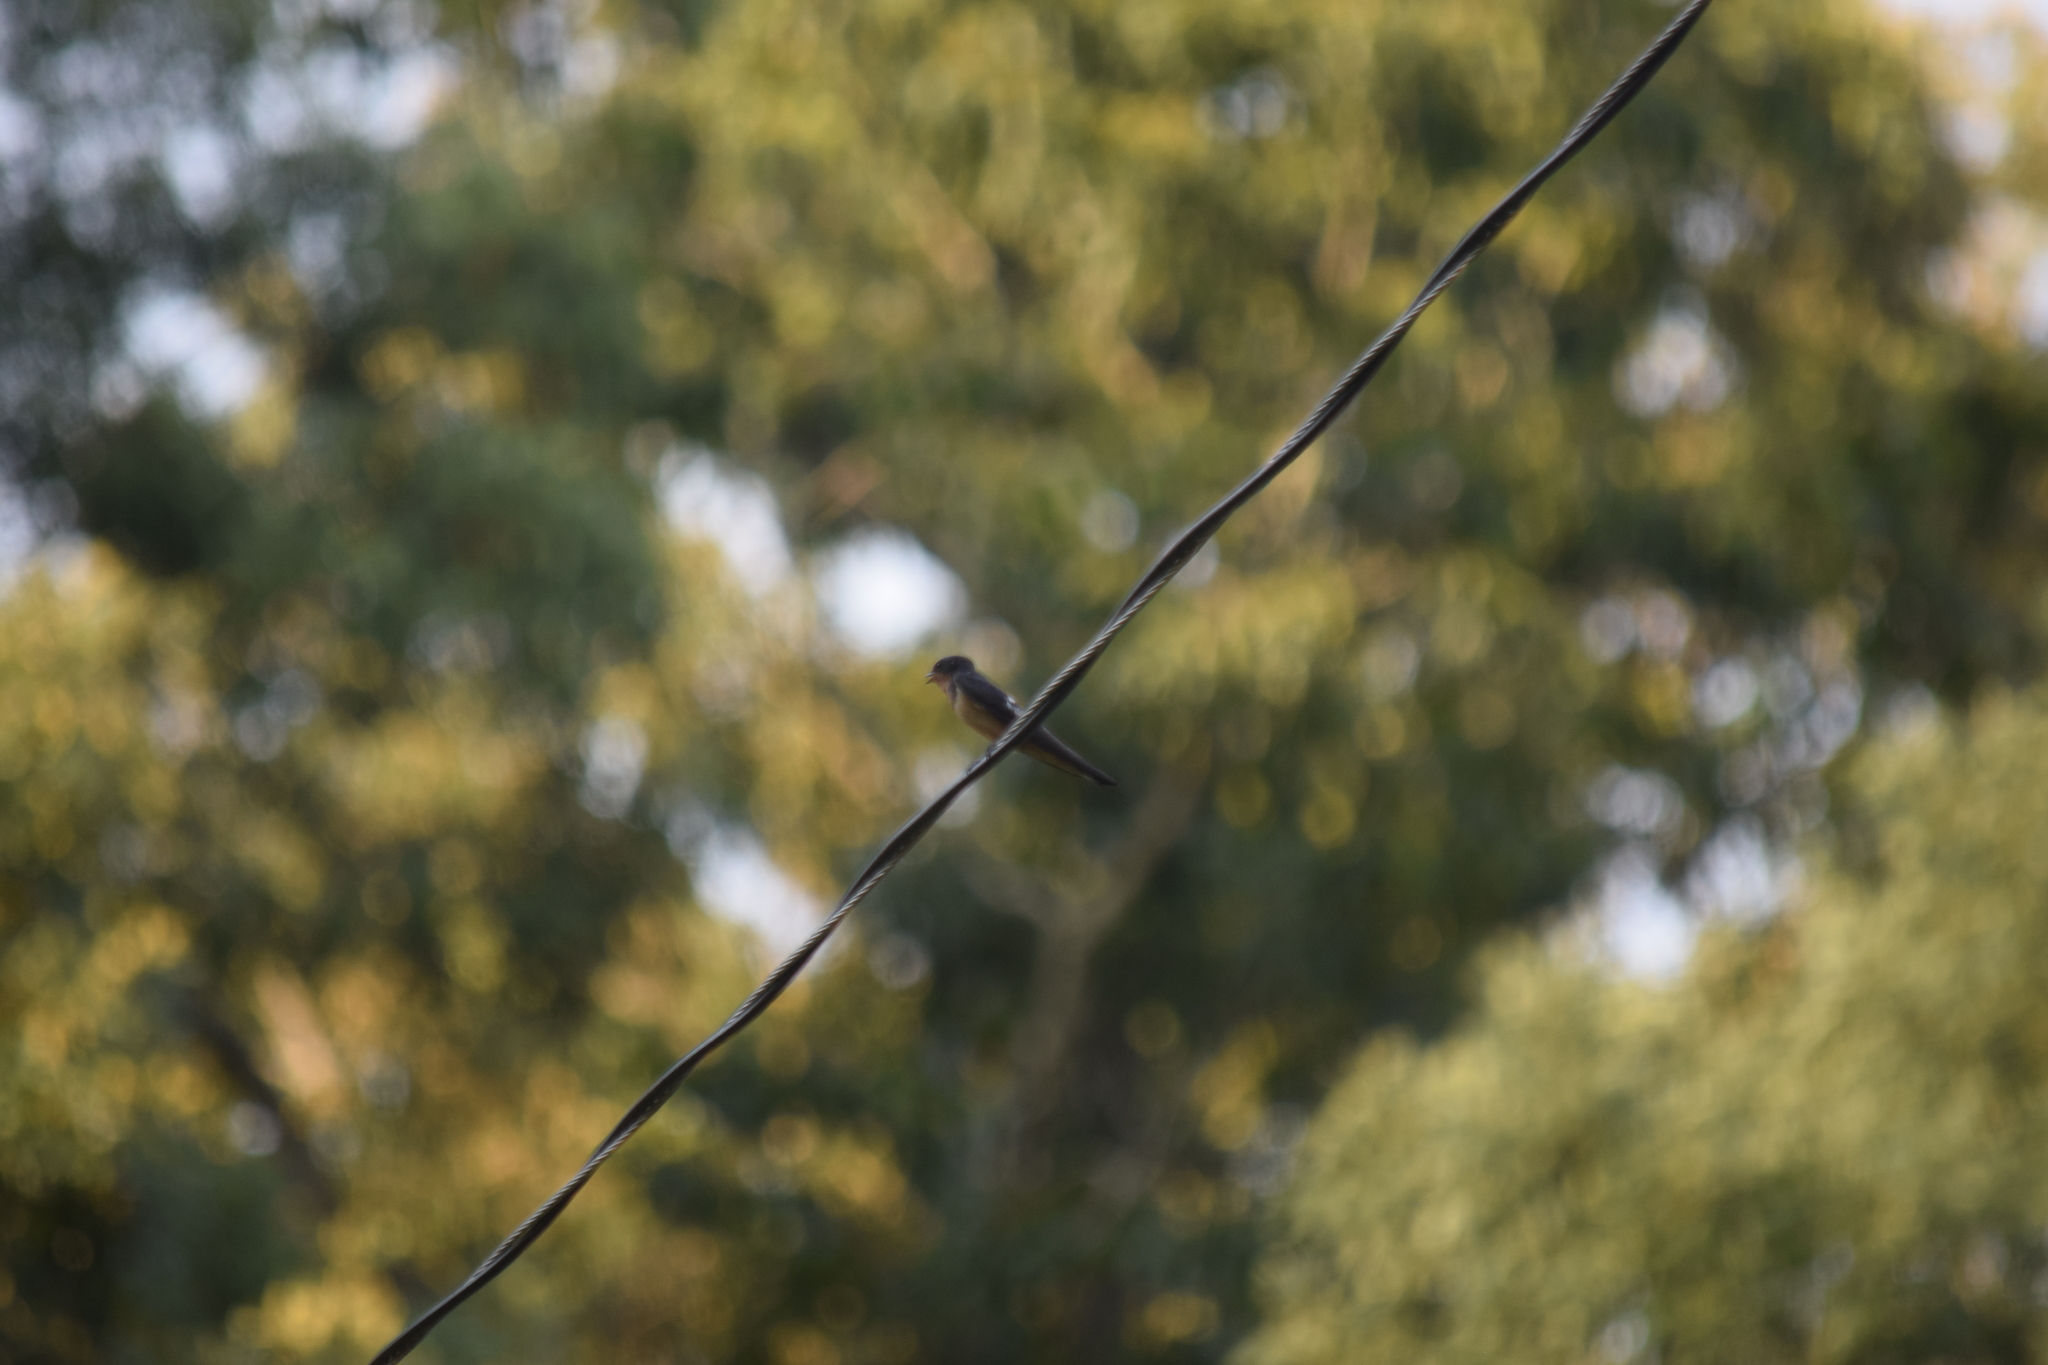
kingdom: Animalia
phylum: Chordata
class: Aves
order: Passeriformes
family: Hirundinidae
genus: Hirundo
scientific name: Hirundo rustica
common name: Barn swallow
